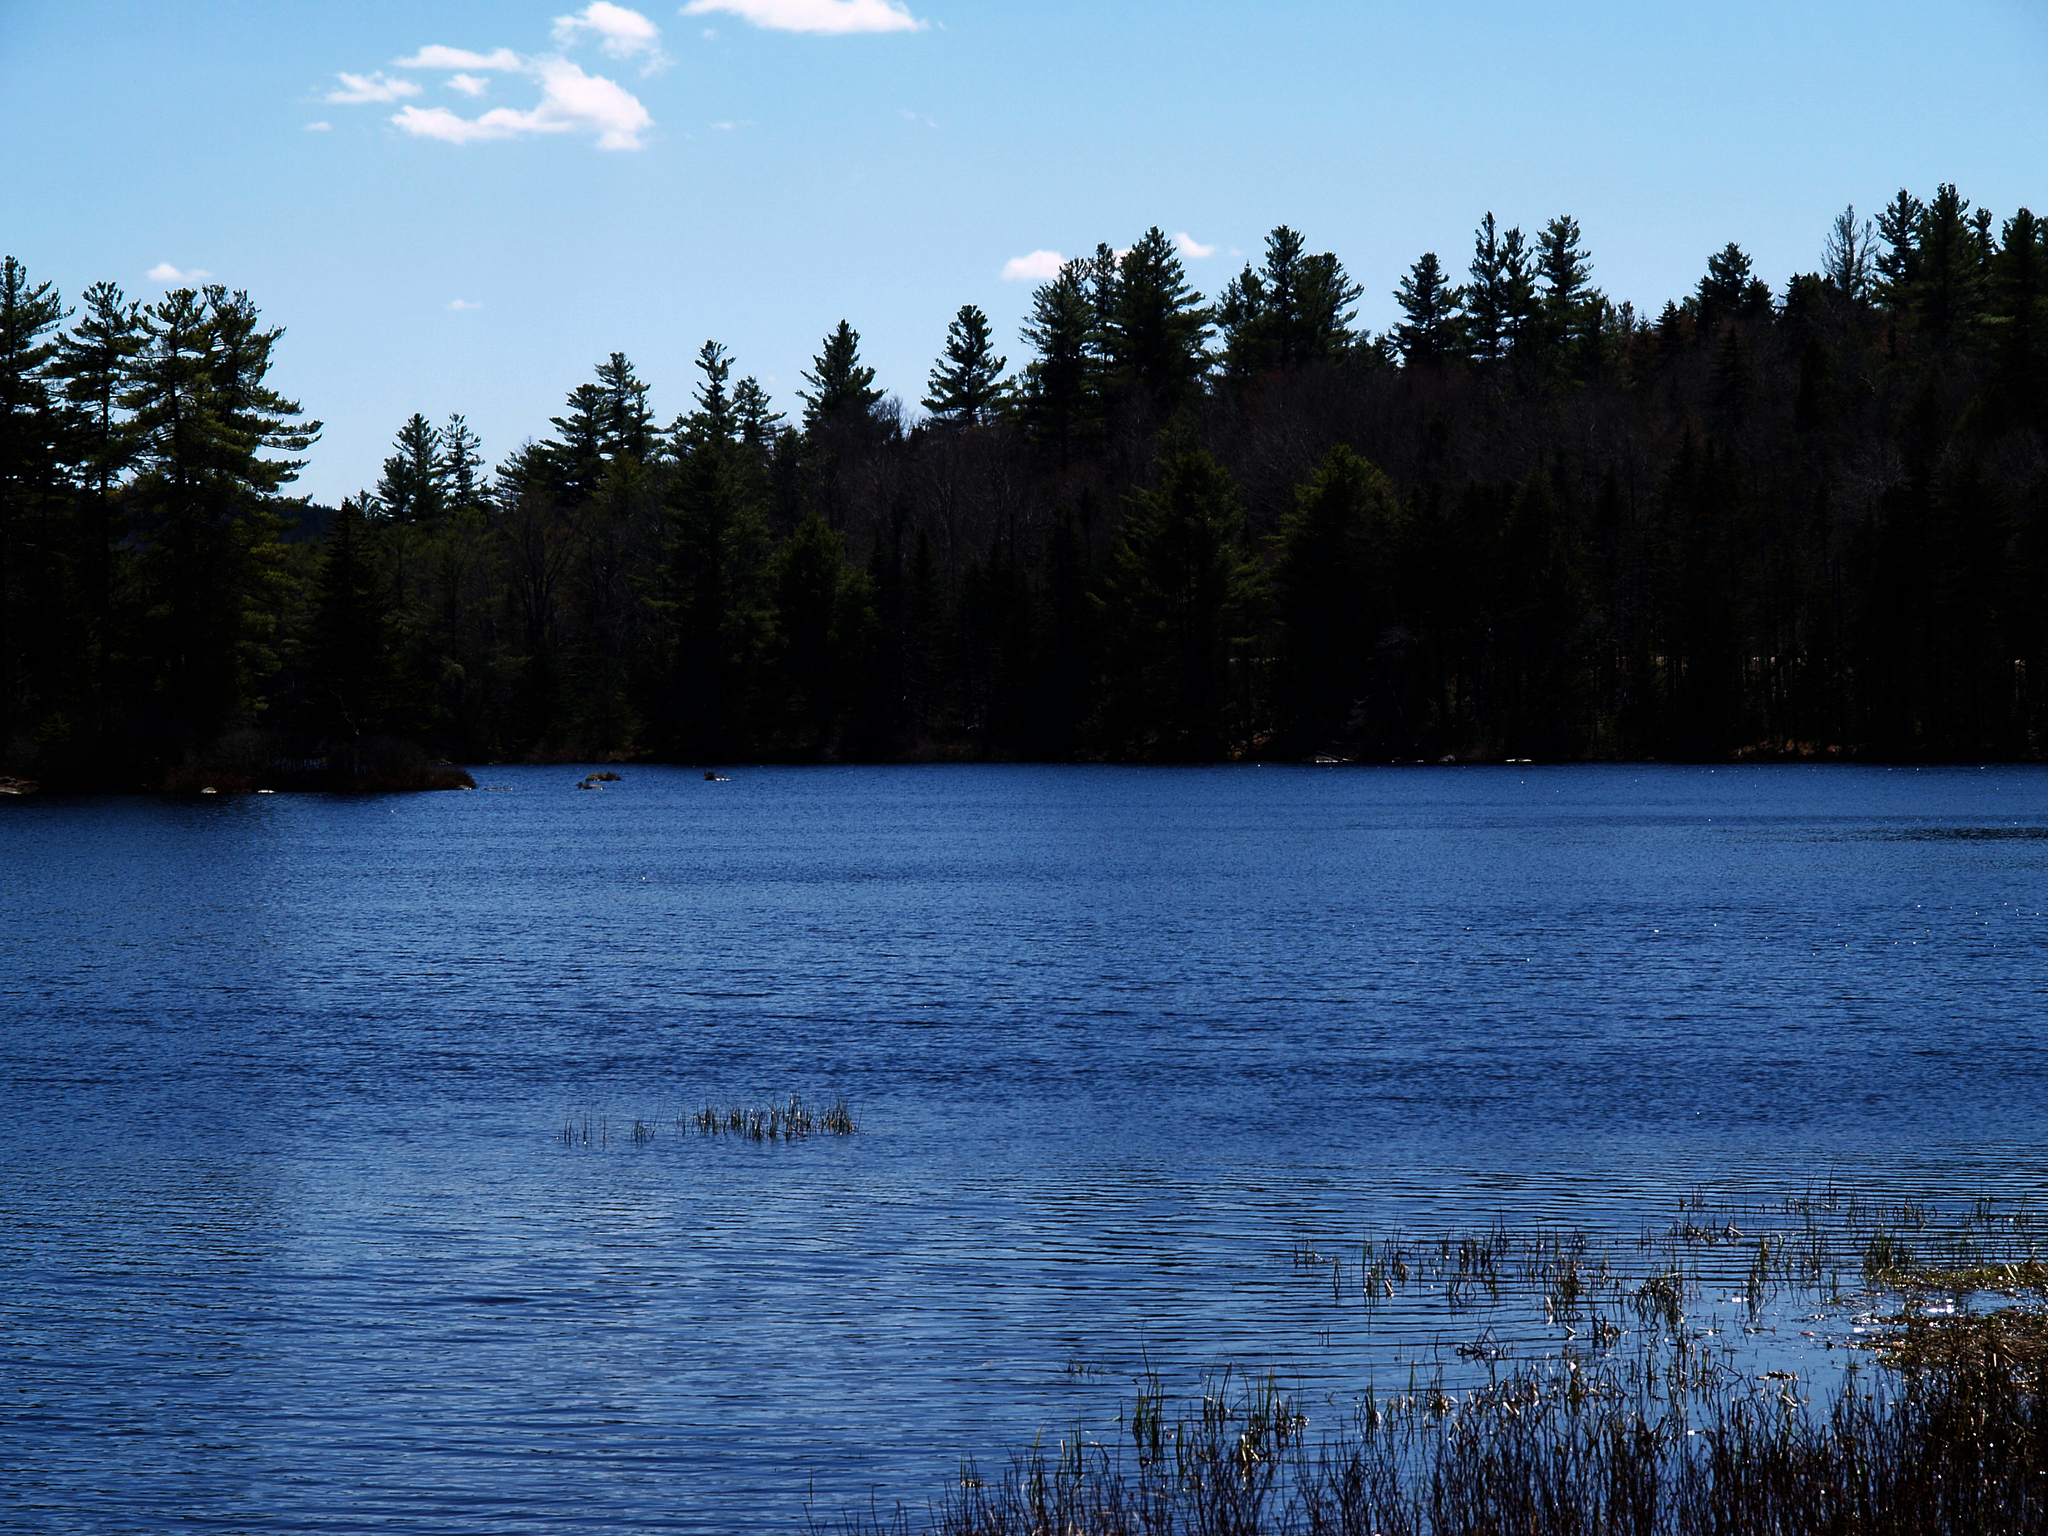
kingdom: Plantae
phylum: Tracheophyta
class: Pinopsida
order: Pinales
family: Pinaceae
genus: Pinus
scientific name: Pinus strobus
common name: Weymouth pine
